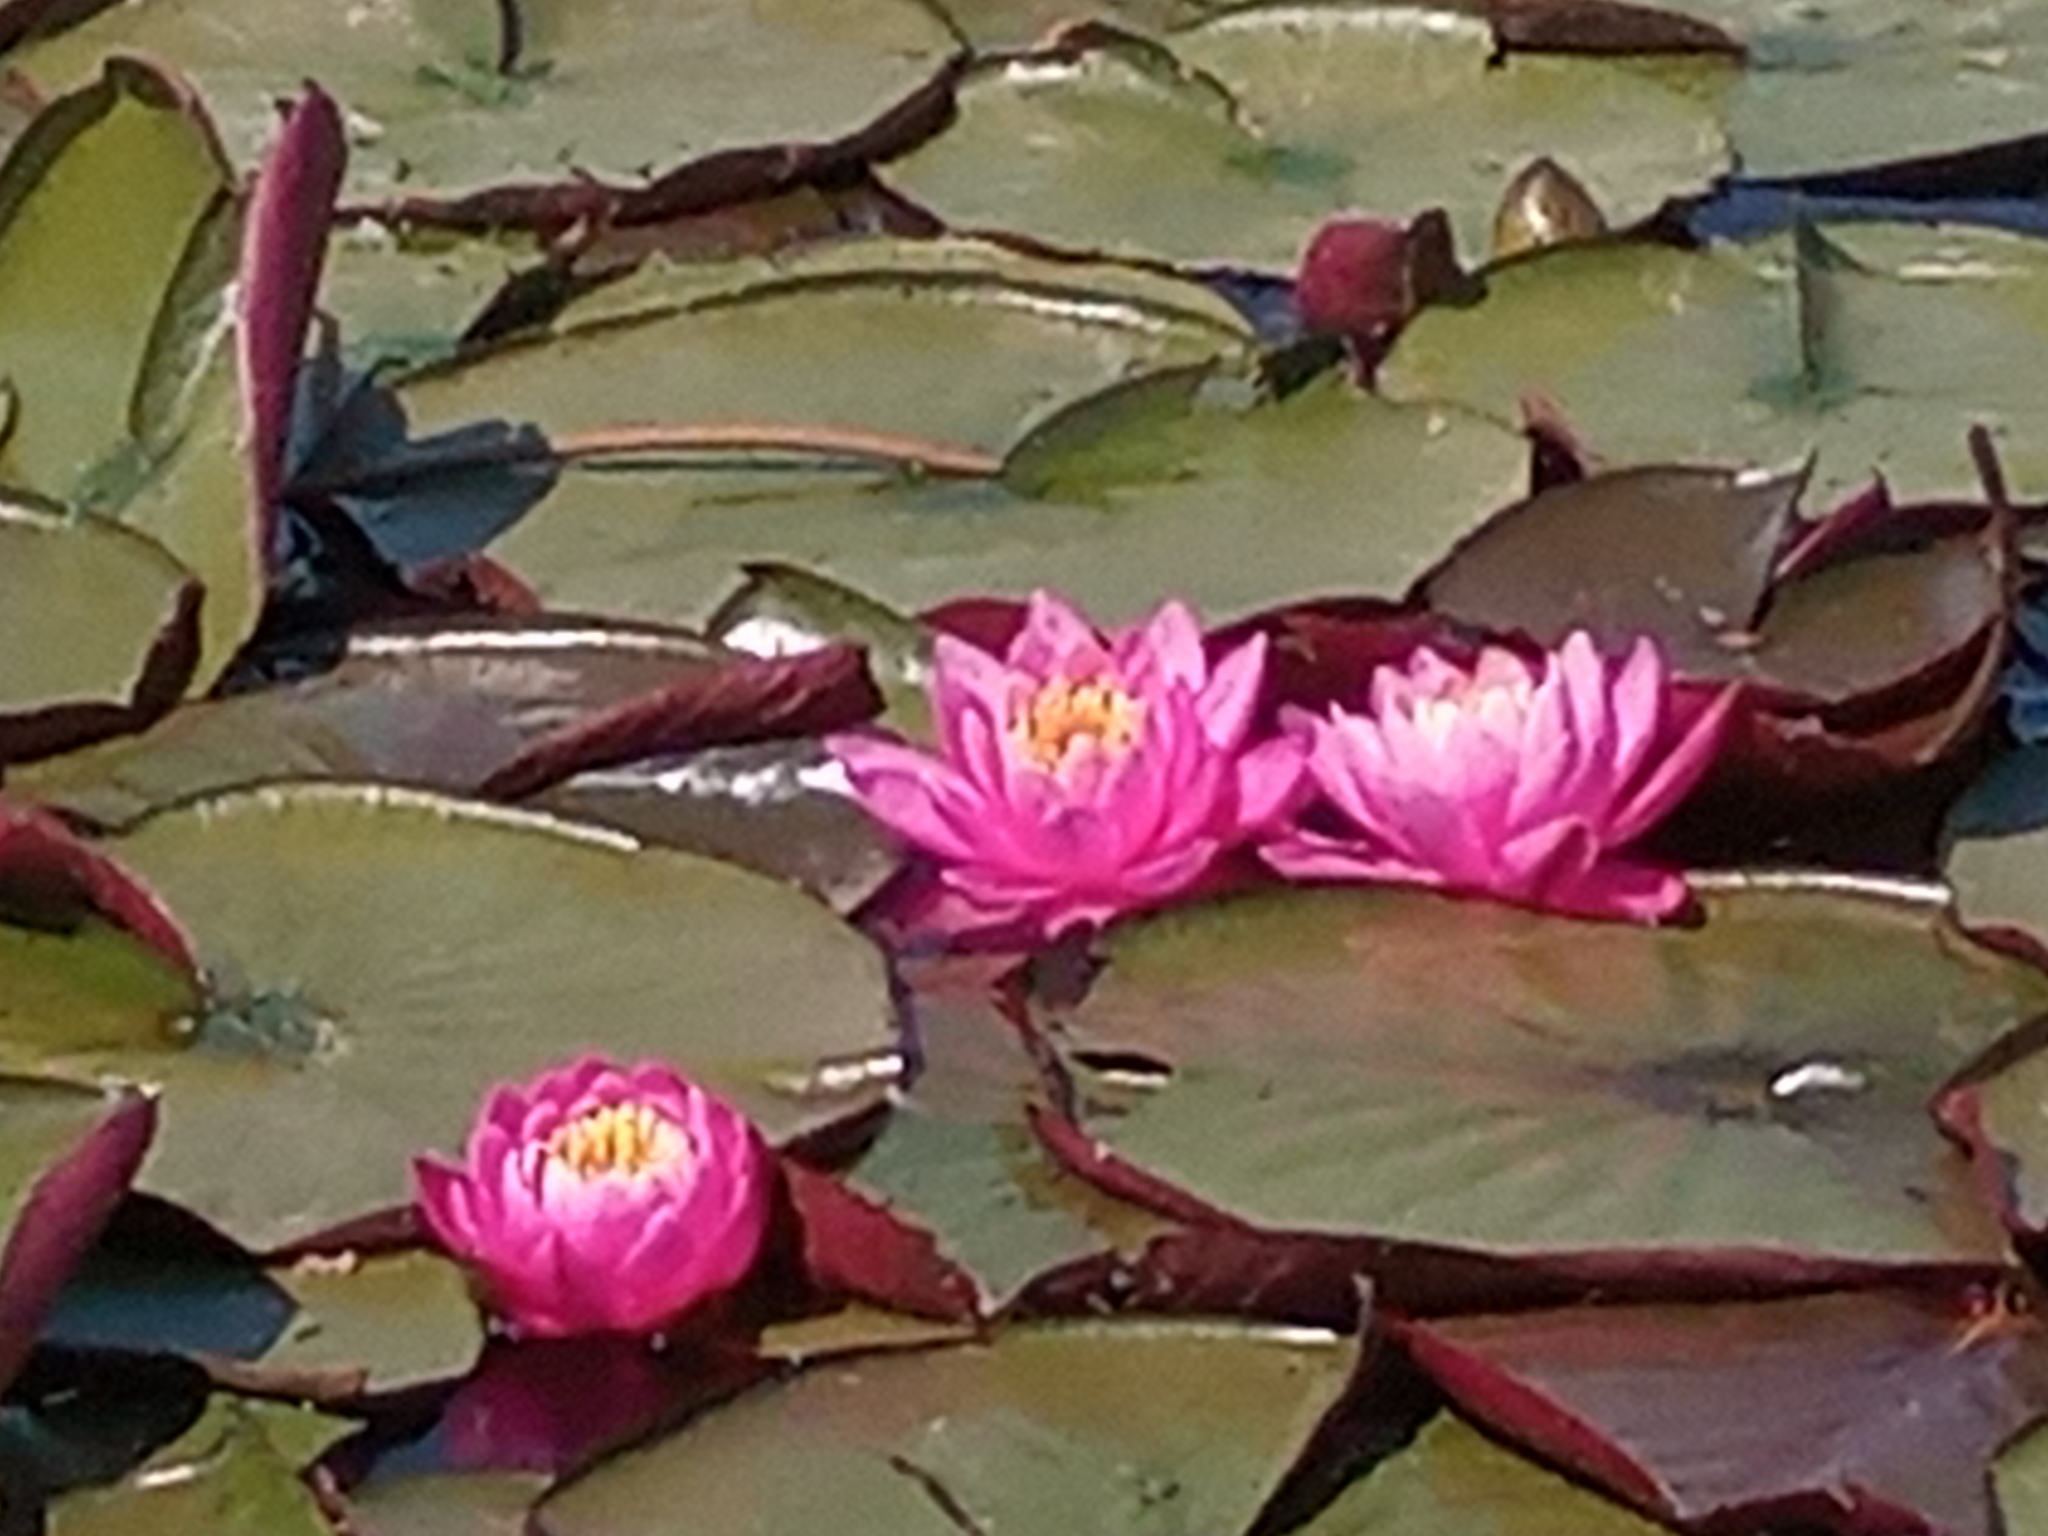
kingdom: Plantae
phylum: Tracheophyta
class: Magnoliopsida
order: Nymphaeales
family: Nymphaeaceae
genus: Nymphaea
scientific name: Nymphaea marliacea
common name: Water-lily
